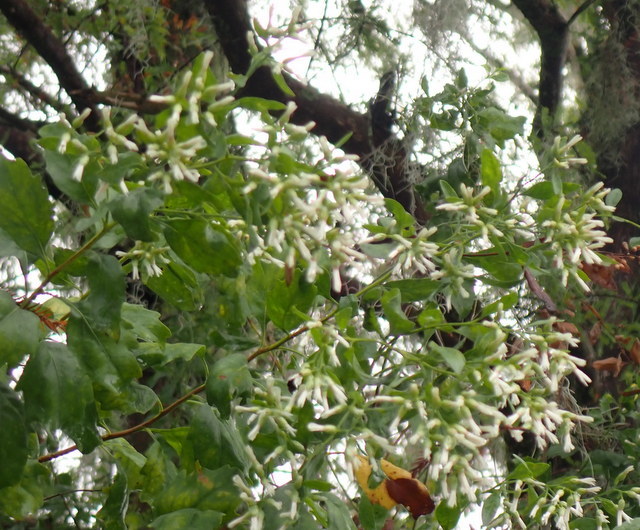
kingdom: Plantae
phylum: Tracheophyta
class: Magnoliopsida
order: Asterales
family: Asteraceae
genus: Baccharis
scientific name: Baccharis halimifolia
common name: Eastern baccharis
